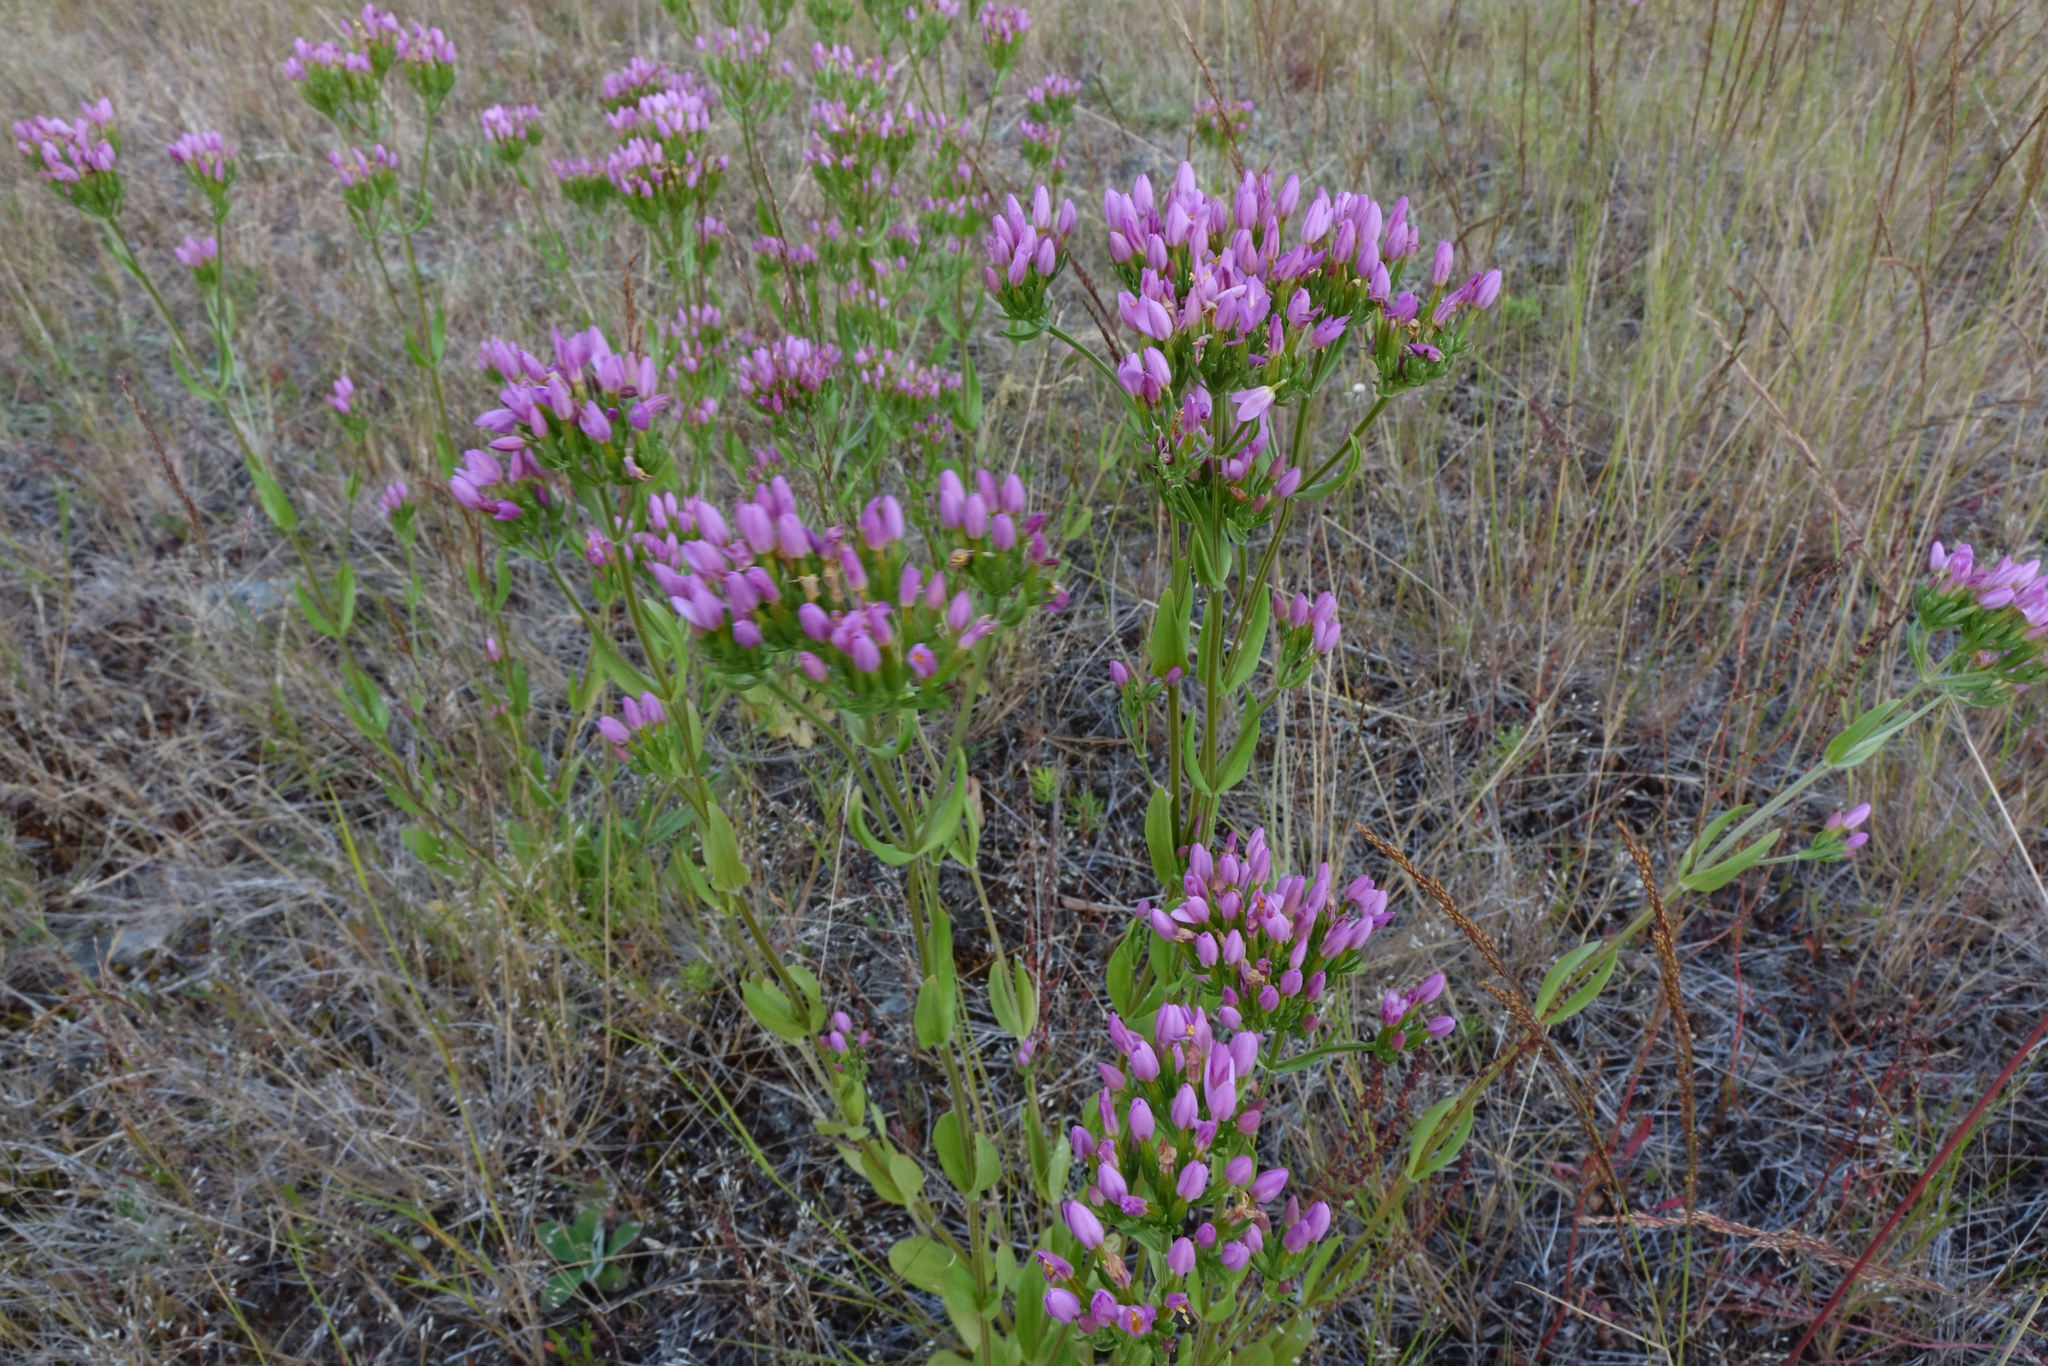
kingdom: Plantae
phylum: Tracheophyta
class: Magnoliopsida
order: Gentianales
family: Gentianaceae
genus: Centaurium
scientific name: Centaurium erythraea
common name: Common centaury
